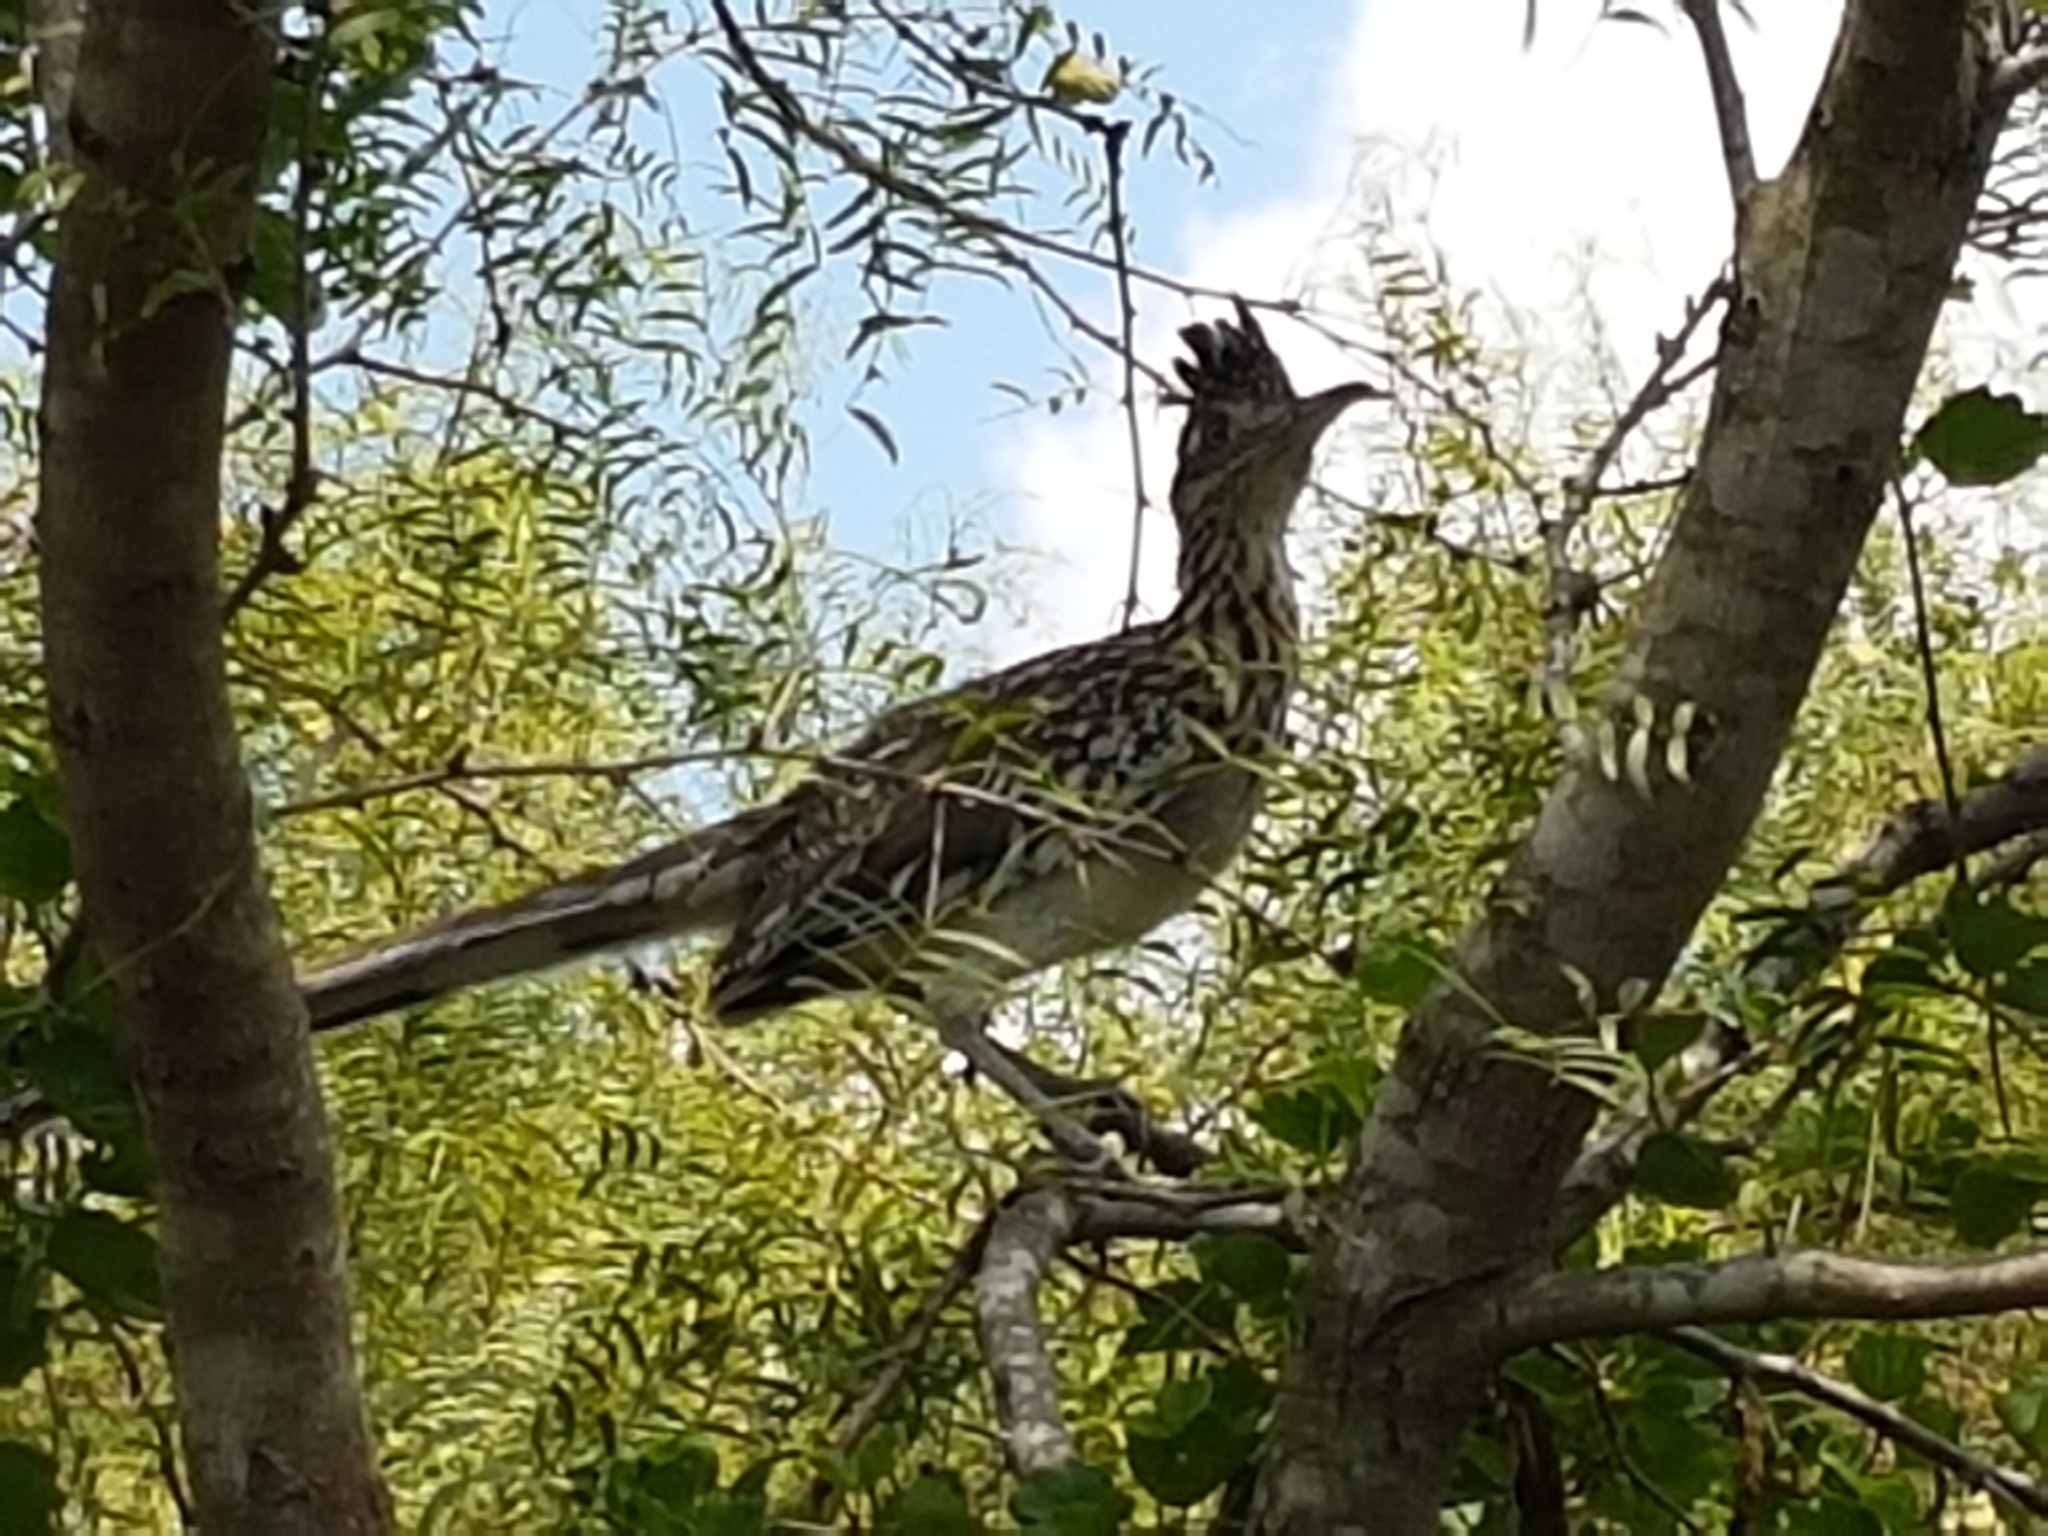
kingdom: Animalia
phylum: Chordata
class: Aves
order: Cuculiformes
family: Cuculidae
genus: Geococcyx
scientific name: Geococcyx californianus
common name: Greater roadrunner
